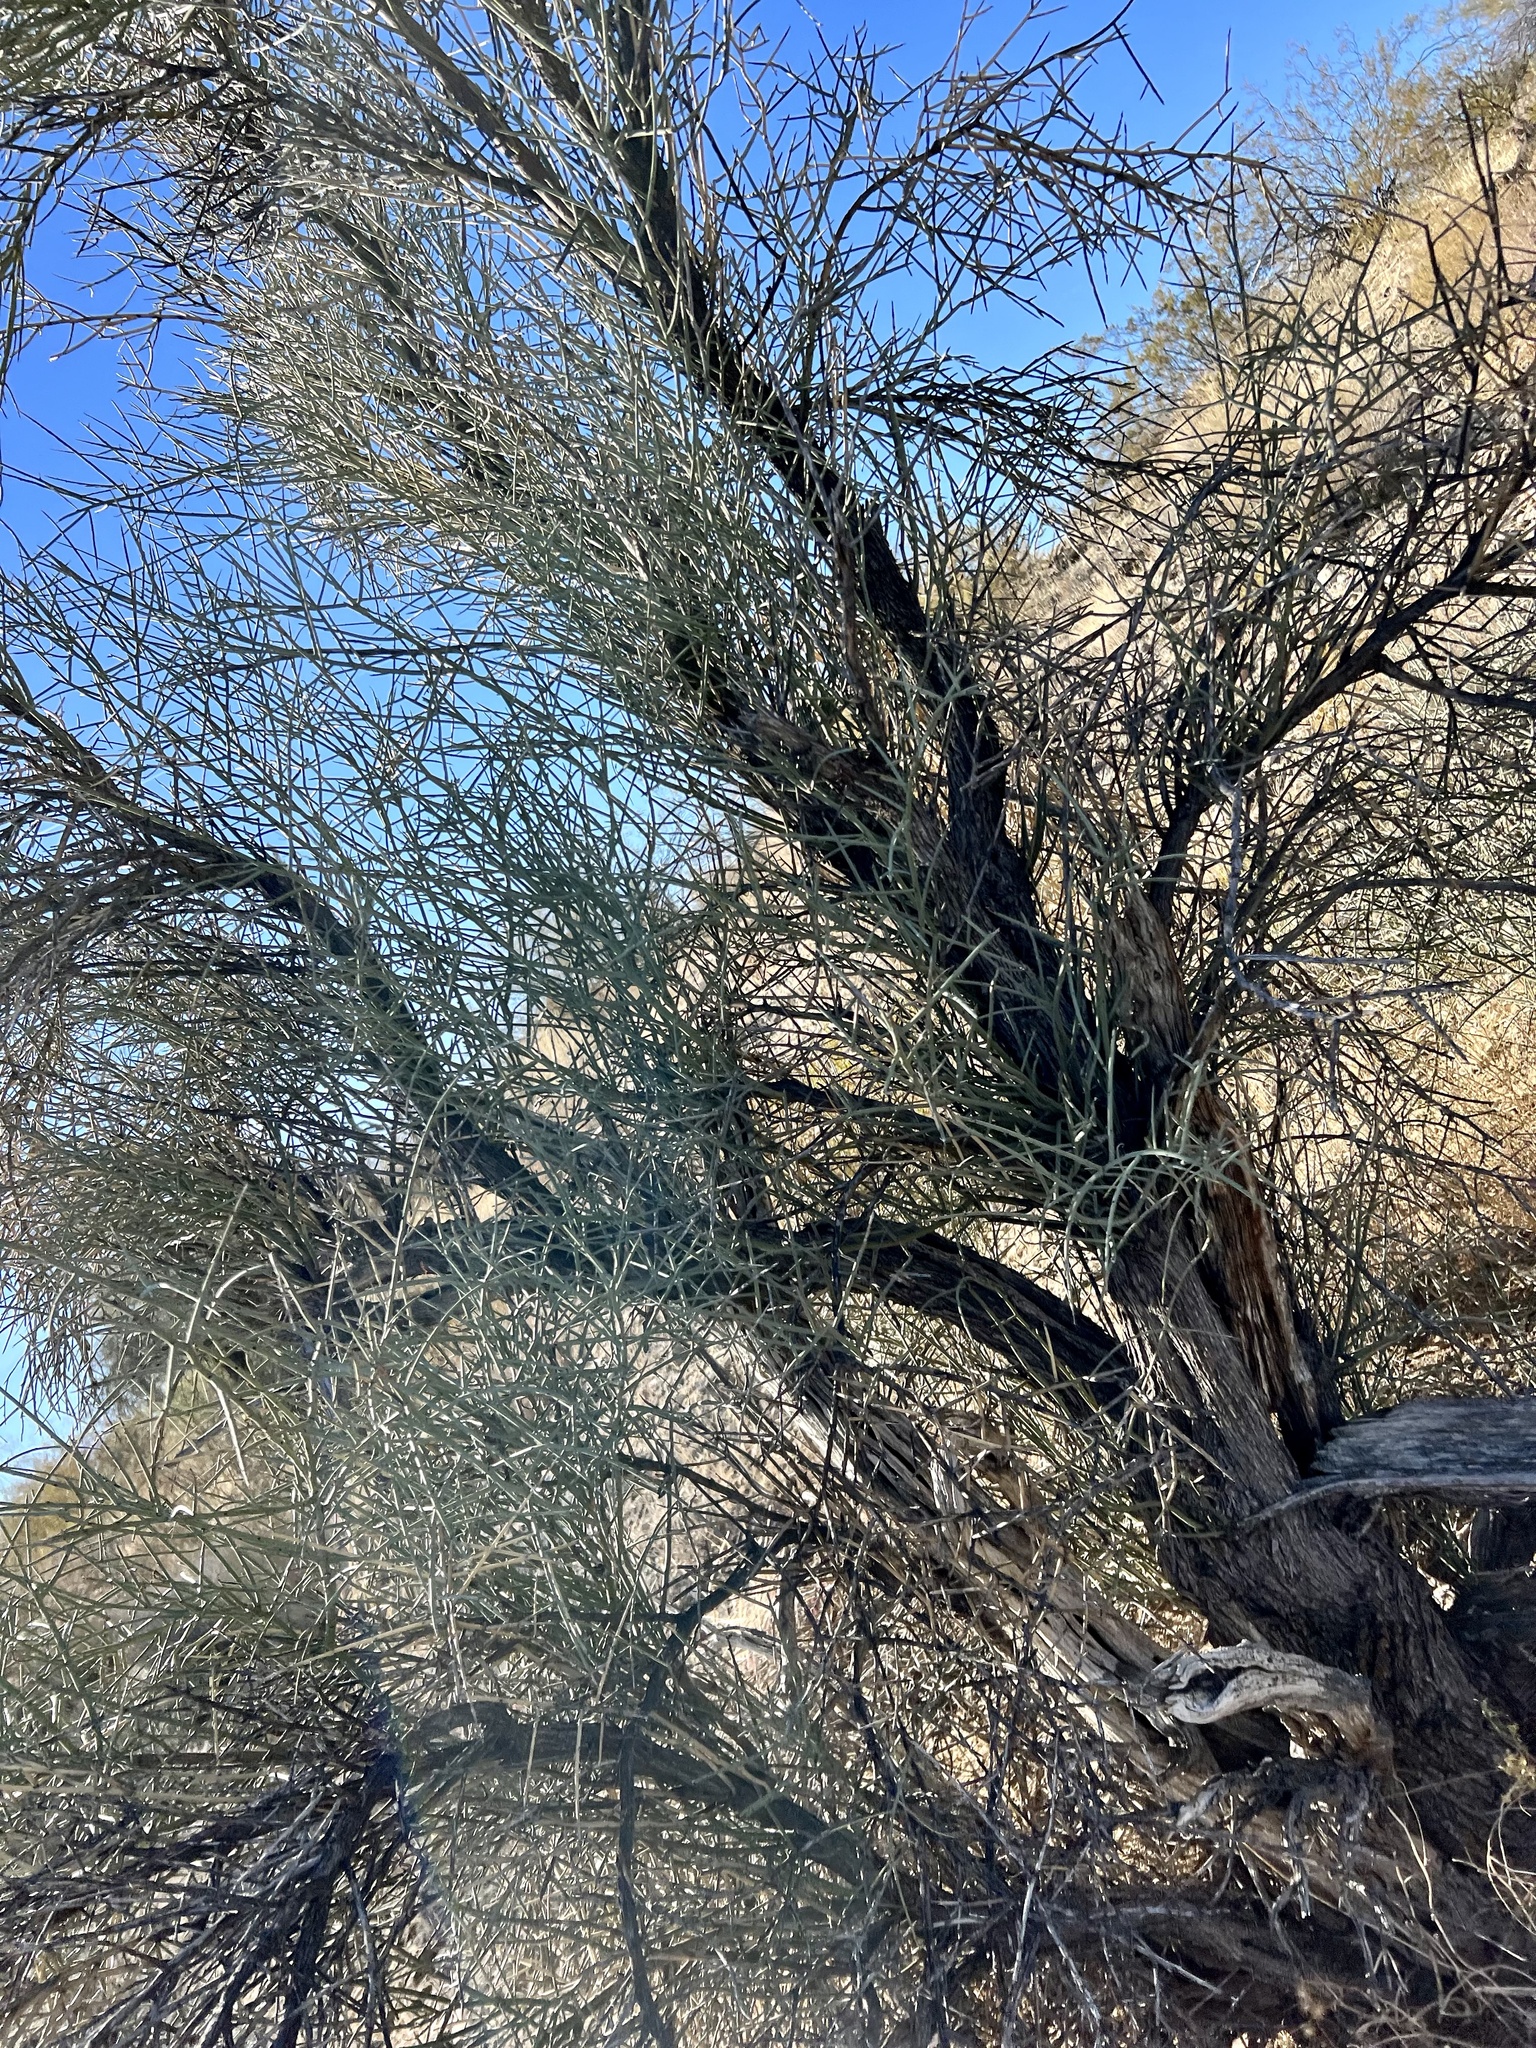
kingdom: Plantae
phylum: Tracheophyta
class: Magnoliopsida
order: Celastrales
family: Celastraceae
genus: Canotia
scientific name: Canotia holacantha
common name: Crucifixion thorns
